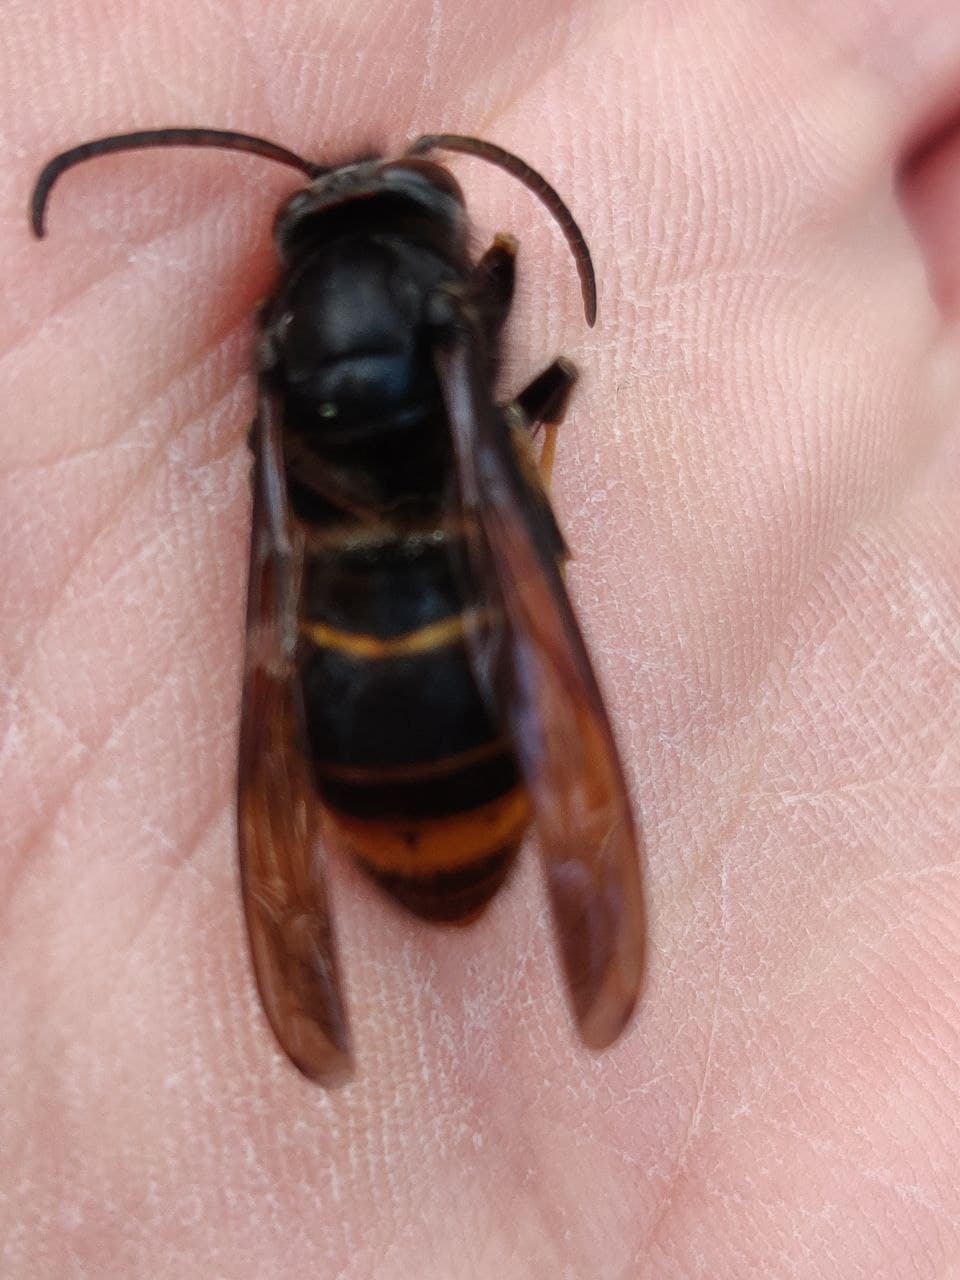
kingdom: Animalia
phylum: Arthropoda
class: Insecta
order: Hymenoptera
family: Vespidae
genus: Vespa
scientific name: Vespa velutina
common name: Asian hornet
